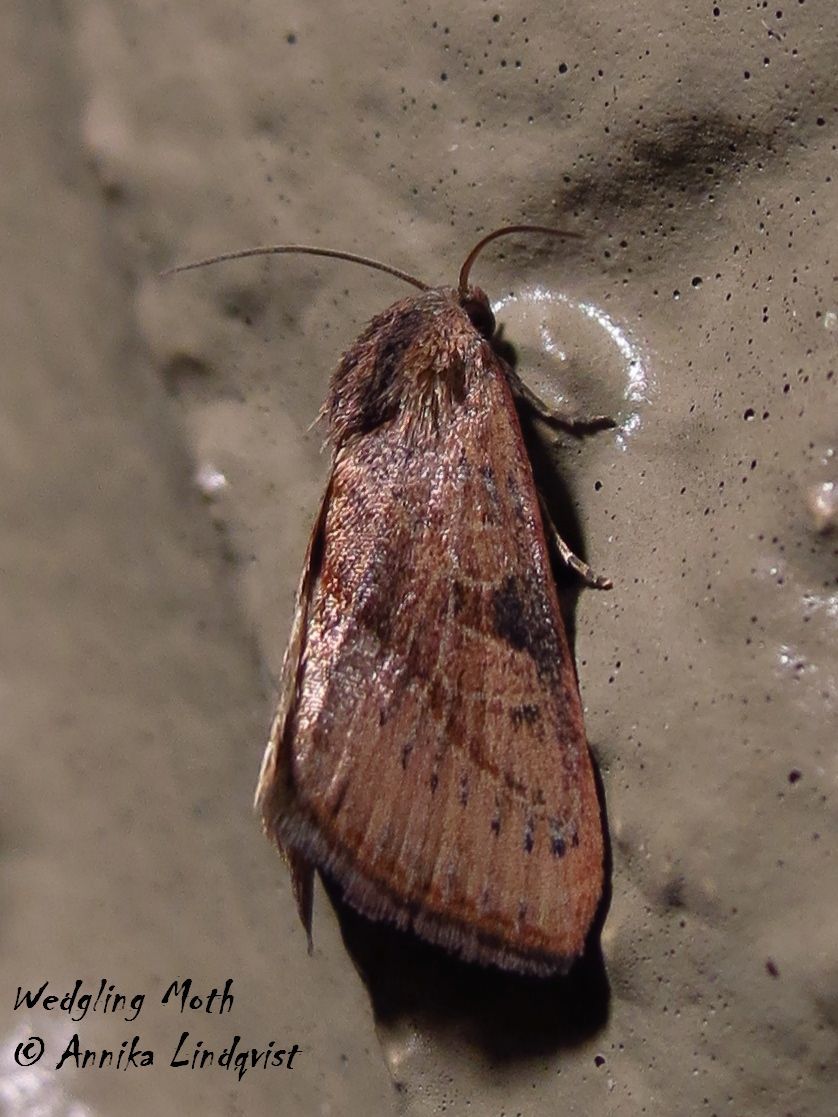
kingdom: Animalia
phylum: Arthropoda
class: Insecta
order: Lepidoptera
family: Noctuidae
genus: Galgula
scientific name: Galgula partita
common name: Wedgeling
